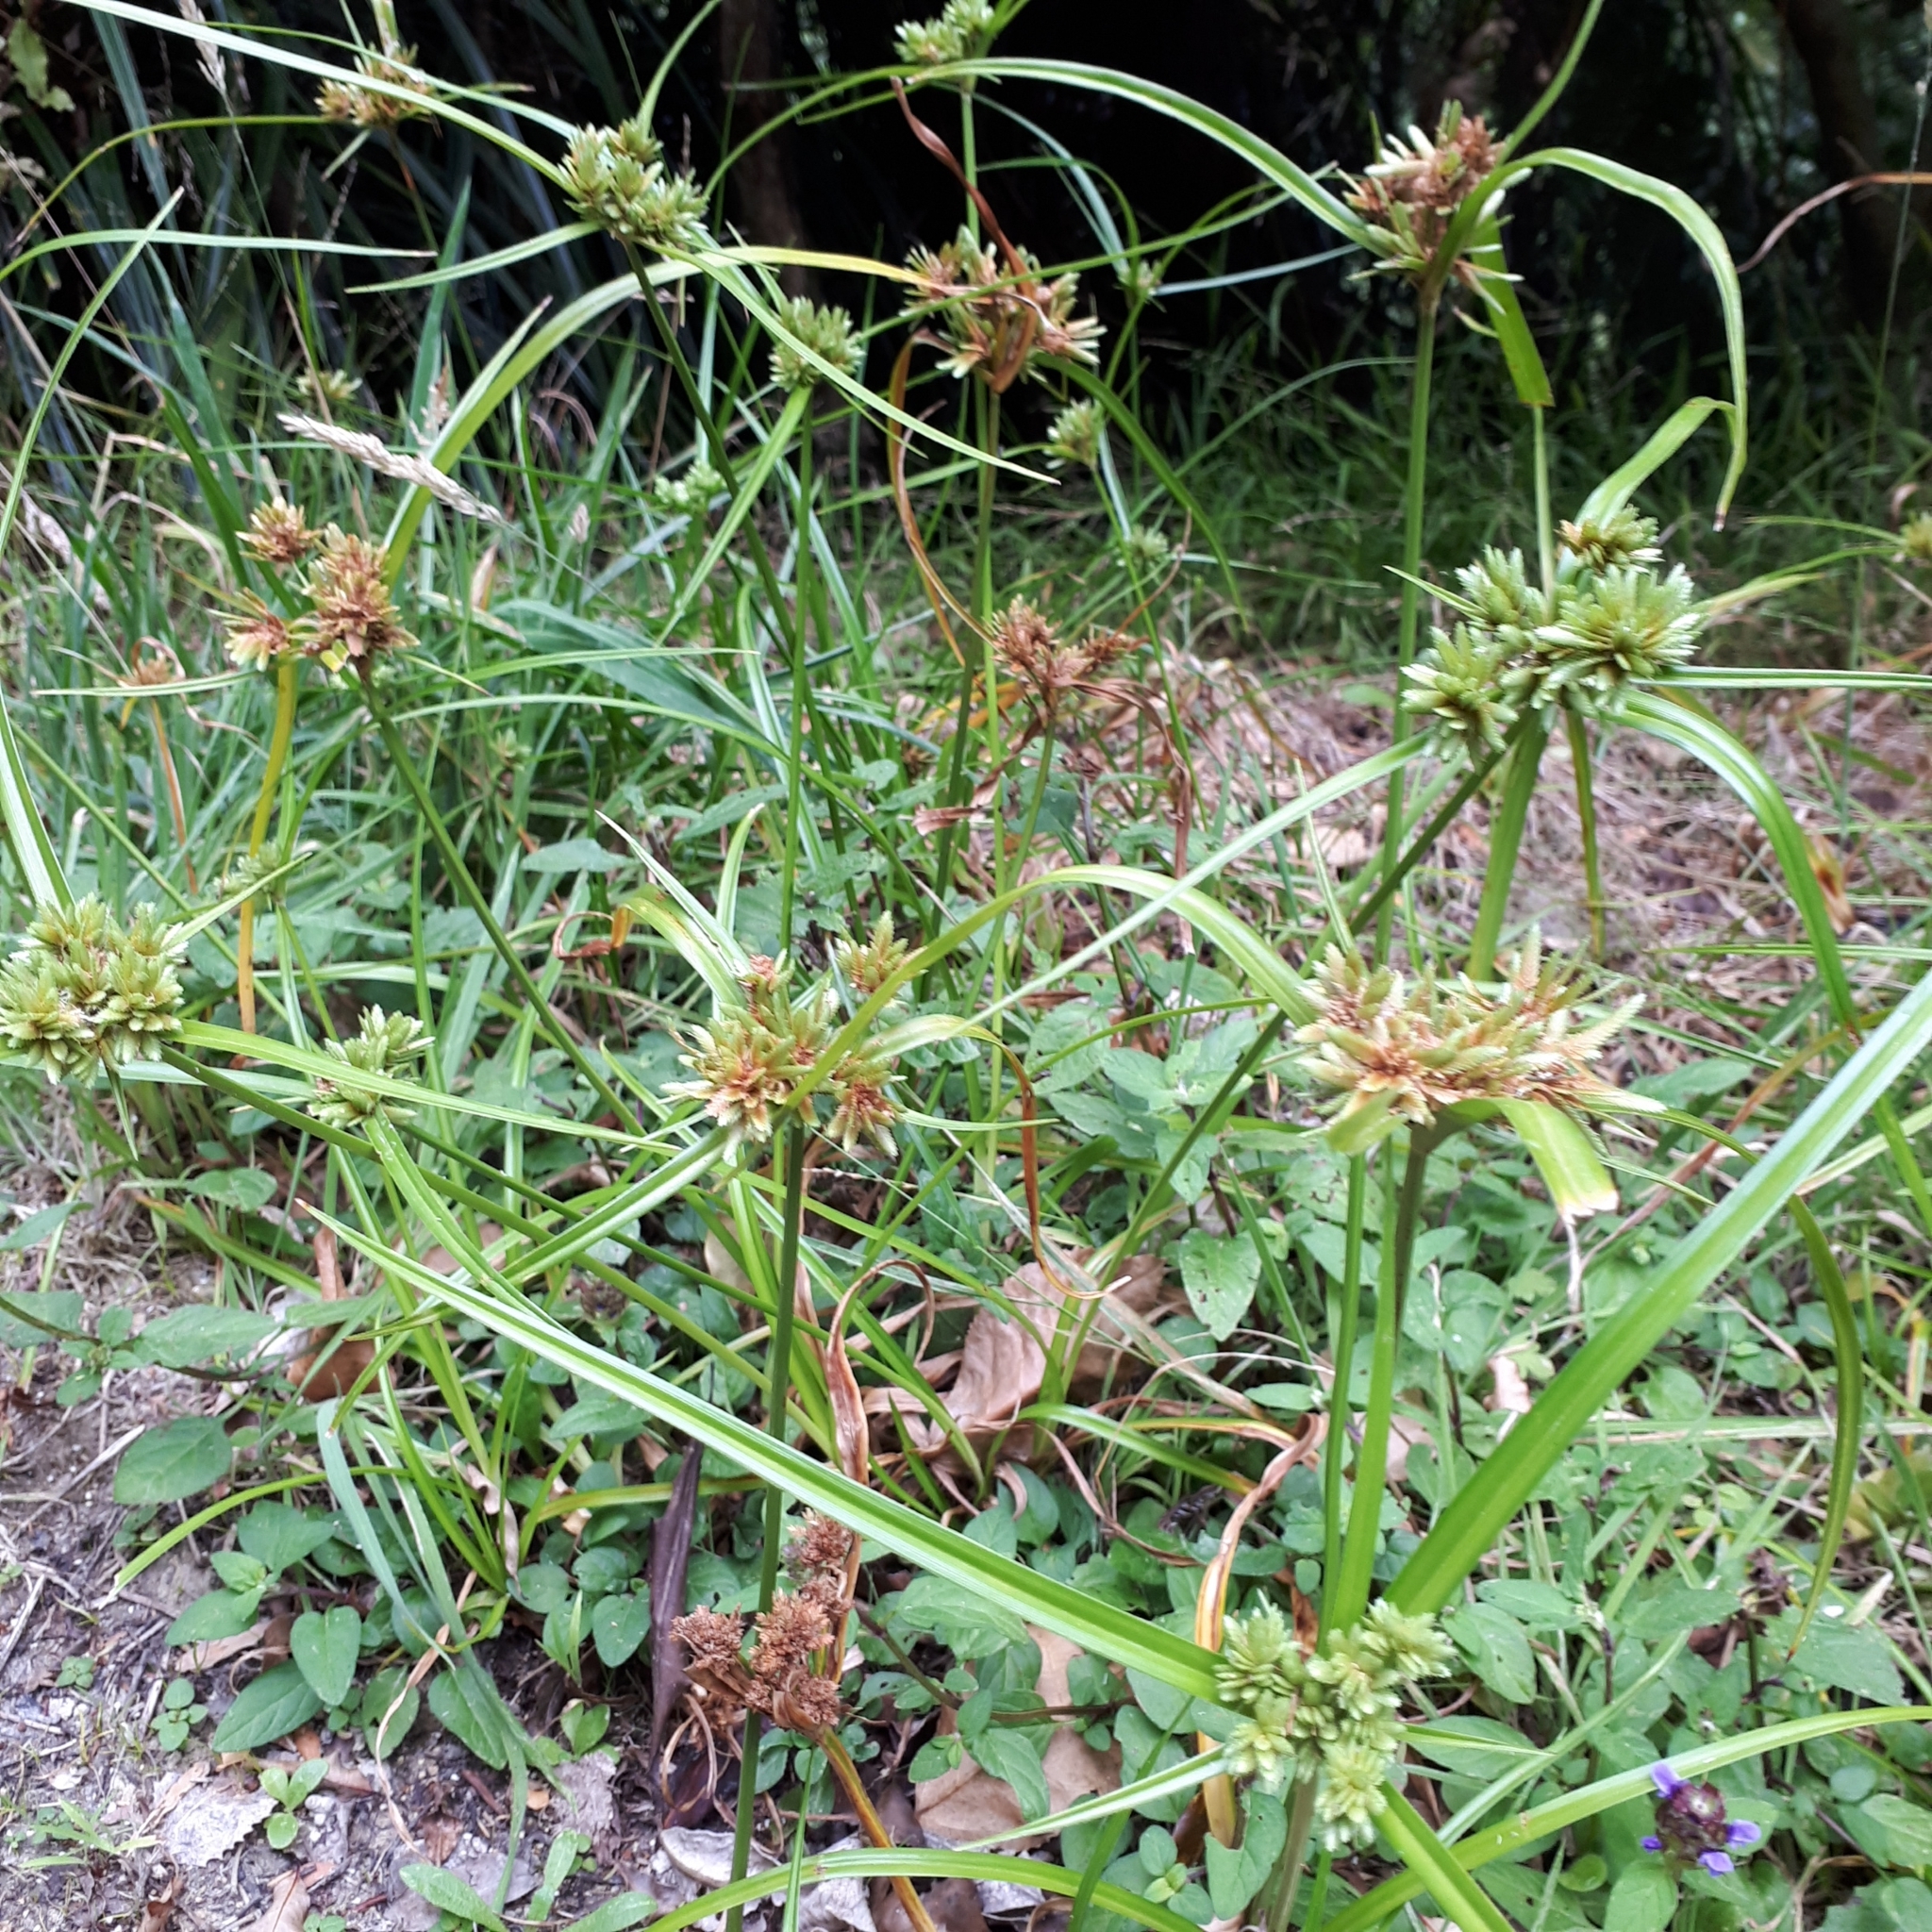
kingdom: Plantae
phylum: Tracheophyta
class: Liliopsida
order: Poales
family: Cyperaceae
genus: Cyperus
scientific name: Cyperus eragrostis
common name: Tall flatsedge
